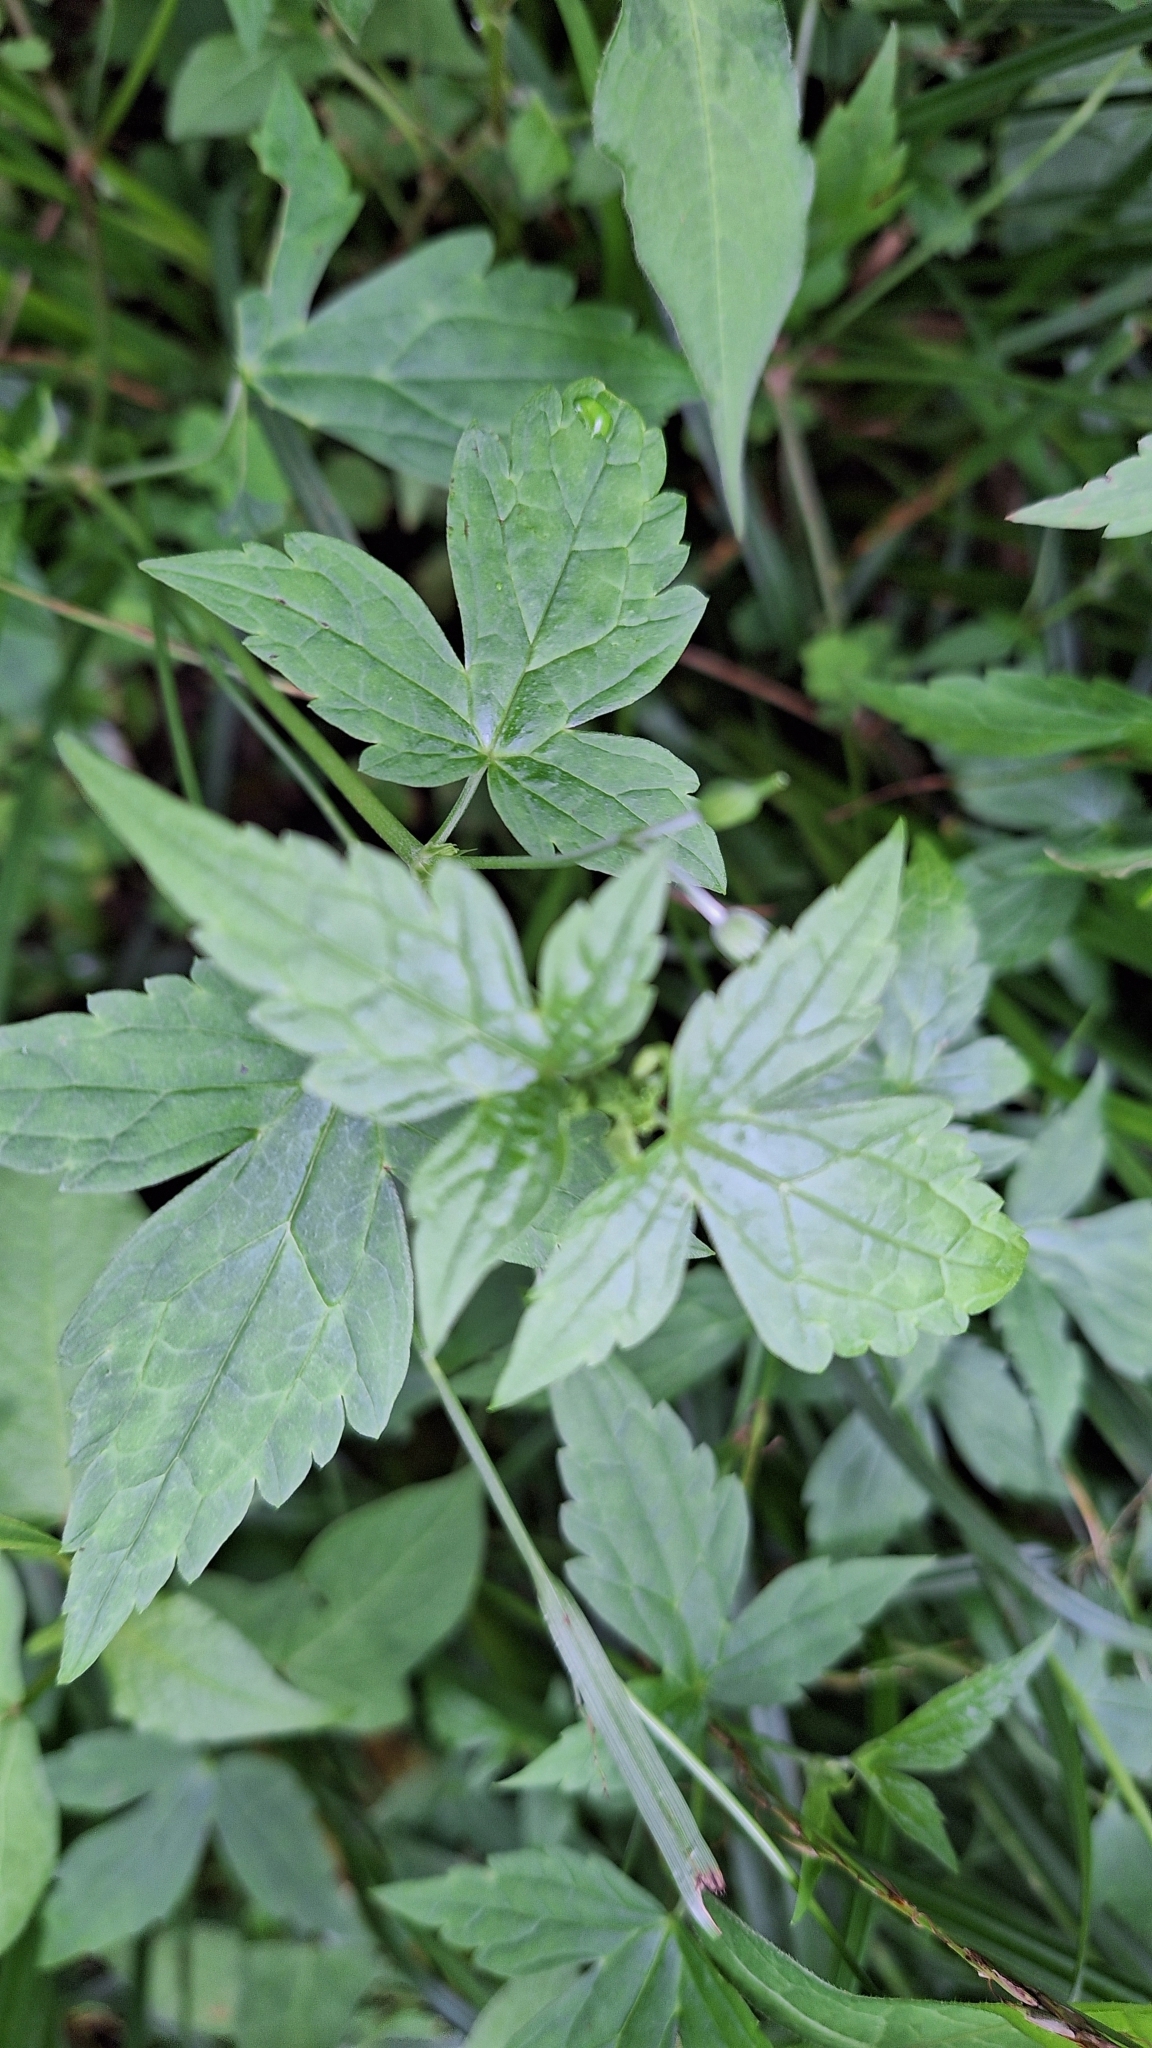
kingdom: Plantae
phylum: Tracheophyta
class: Magnoliopsida
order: Geraniales
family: Geraniaceae
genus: Geranium
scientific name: Geranium wilfordii
